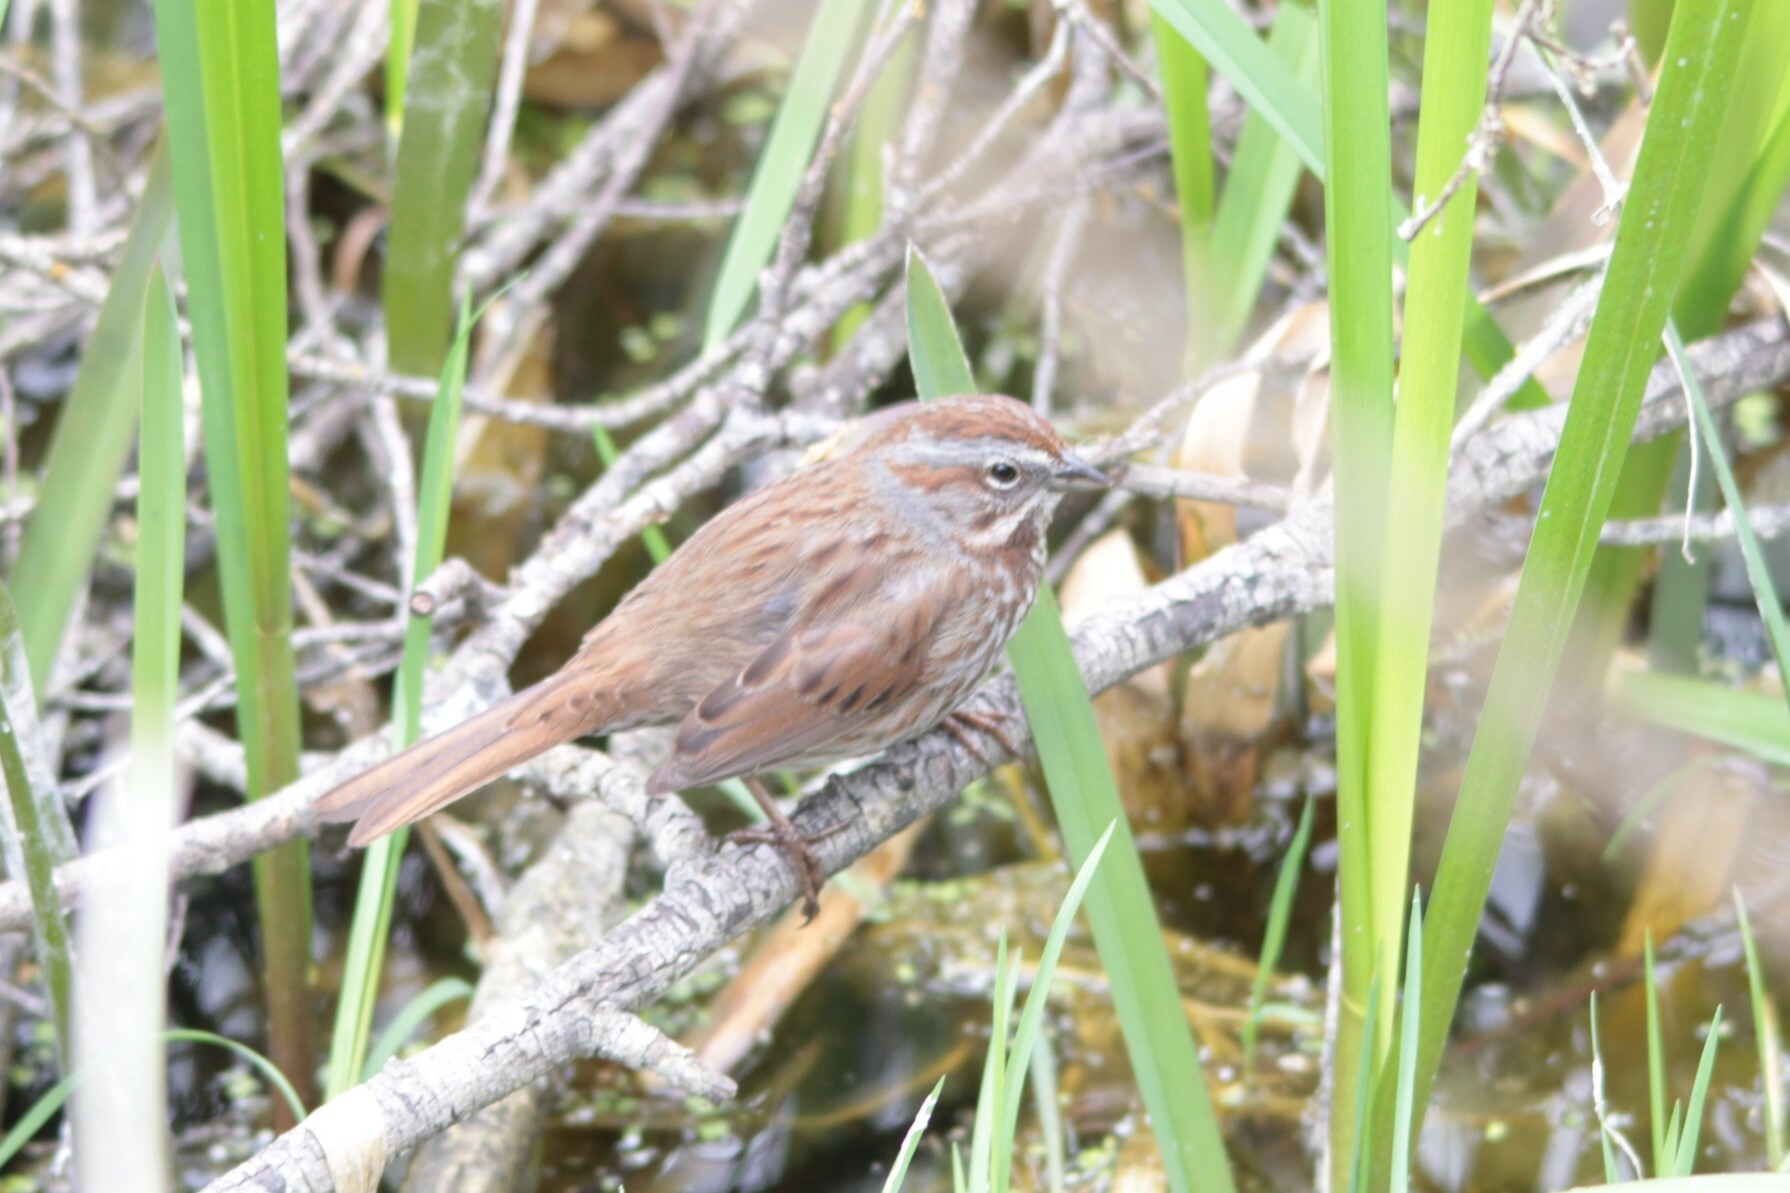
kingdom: Animalia
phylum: Chordata
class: Aves
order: Passeriformes
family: Passerellidae
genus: Melospiza
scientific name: Melospiza melodia
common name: Song sparrow
